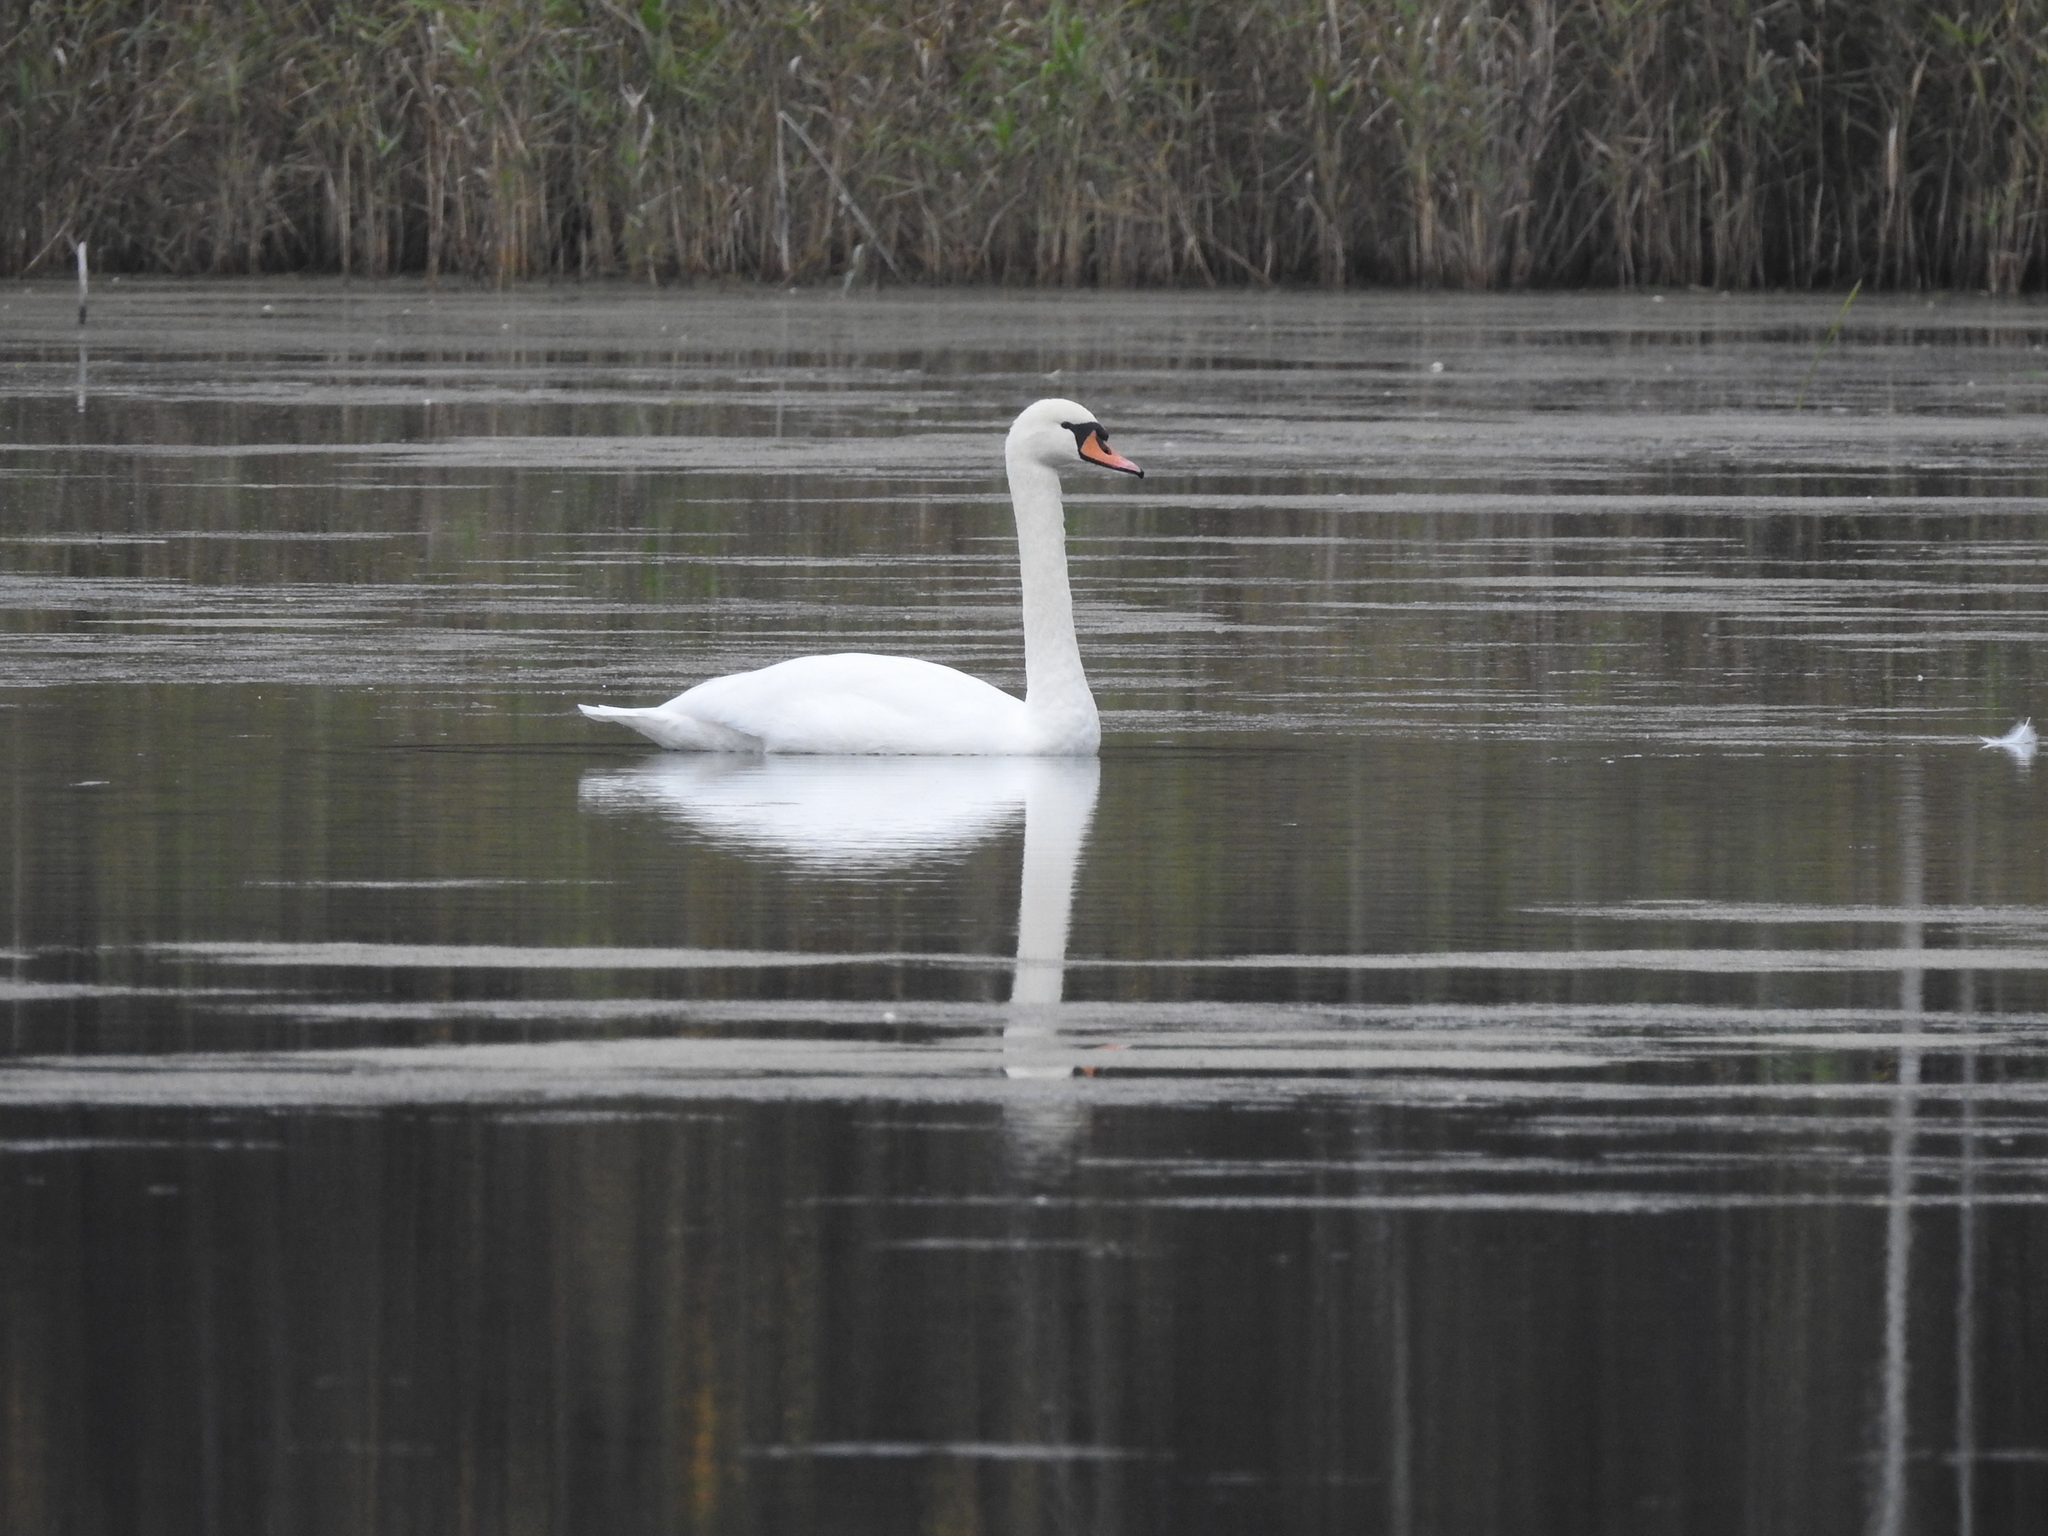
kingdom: Animalia
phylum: Chordata
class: Aves
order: Anseriformes
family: Anatidae
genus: Cygnus
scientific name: Cygnus olor
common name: Mute swan
